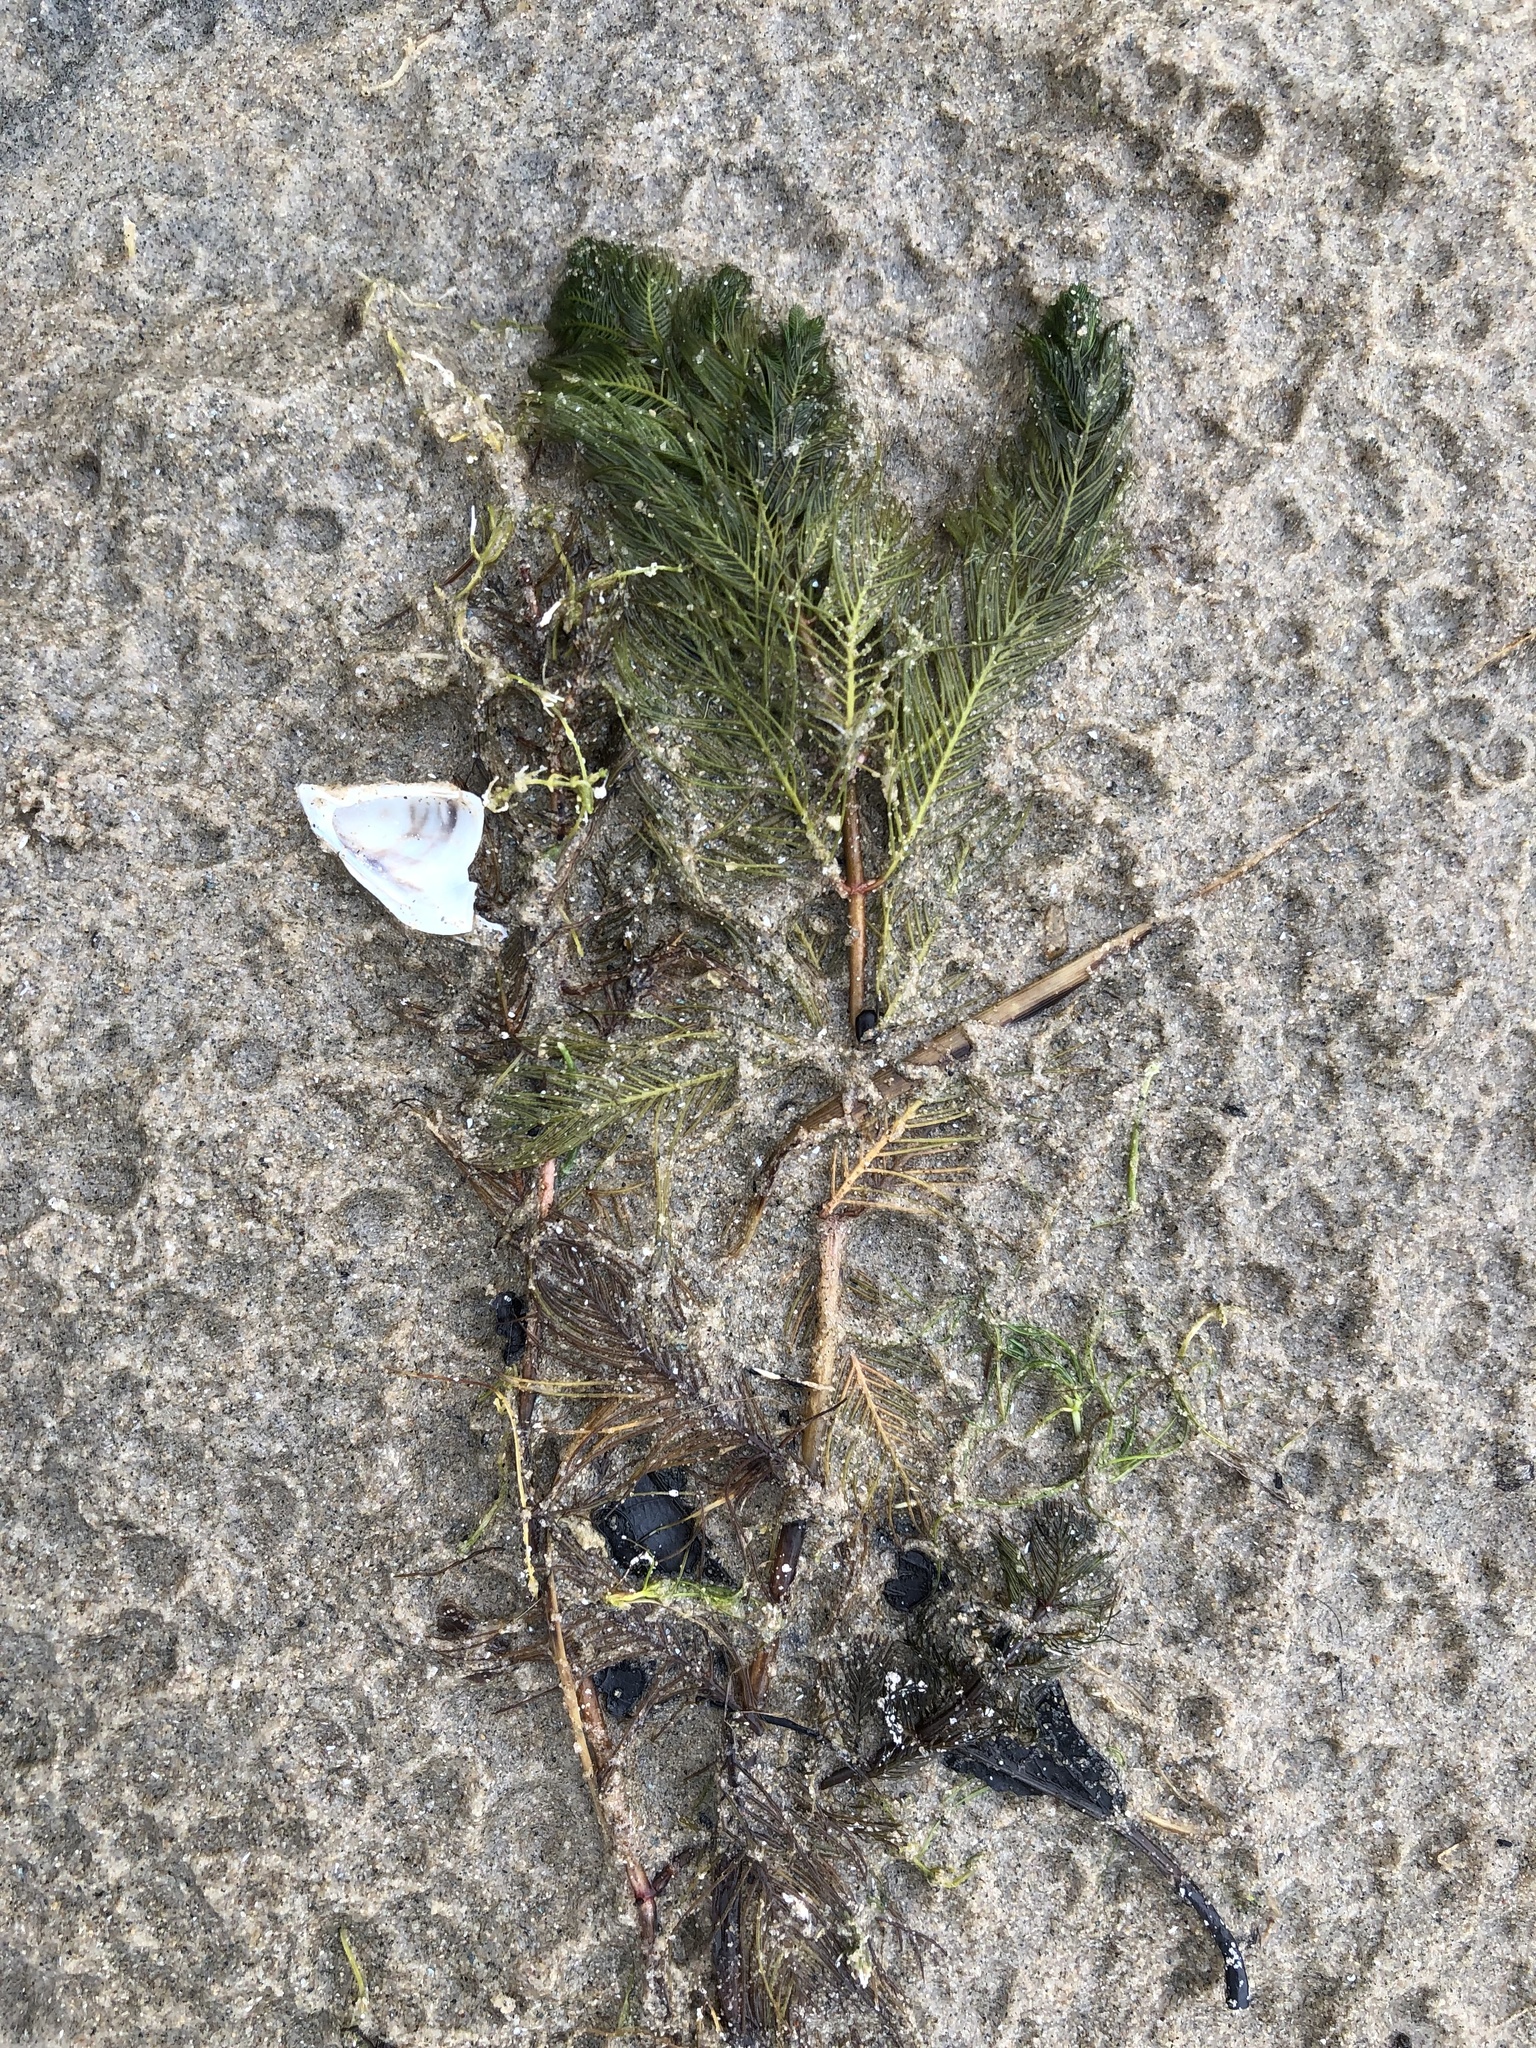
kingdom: Plantae
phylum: Tracheophyta
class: Magnoliopsida
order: Saxifragales
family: Haloragaceae
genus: Myriophyllum
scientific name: Myriophyllum spicatum
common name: Spiked water-milfoil
